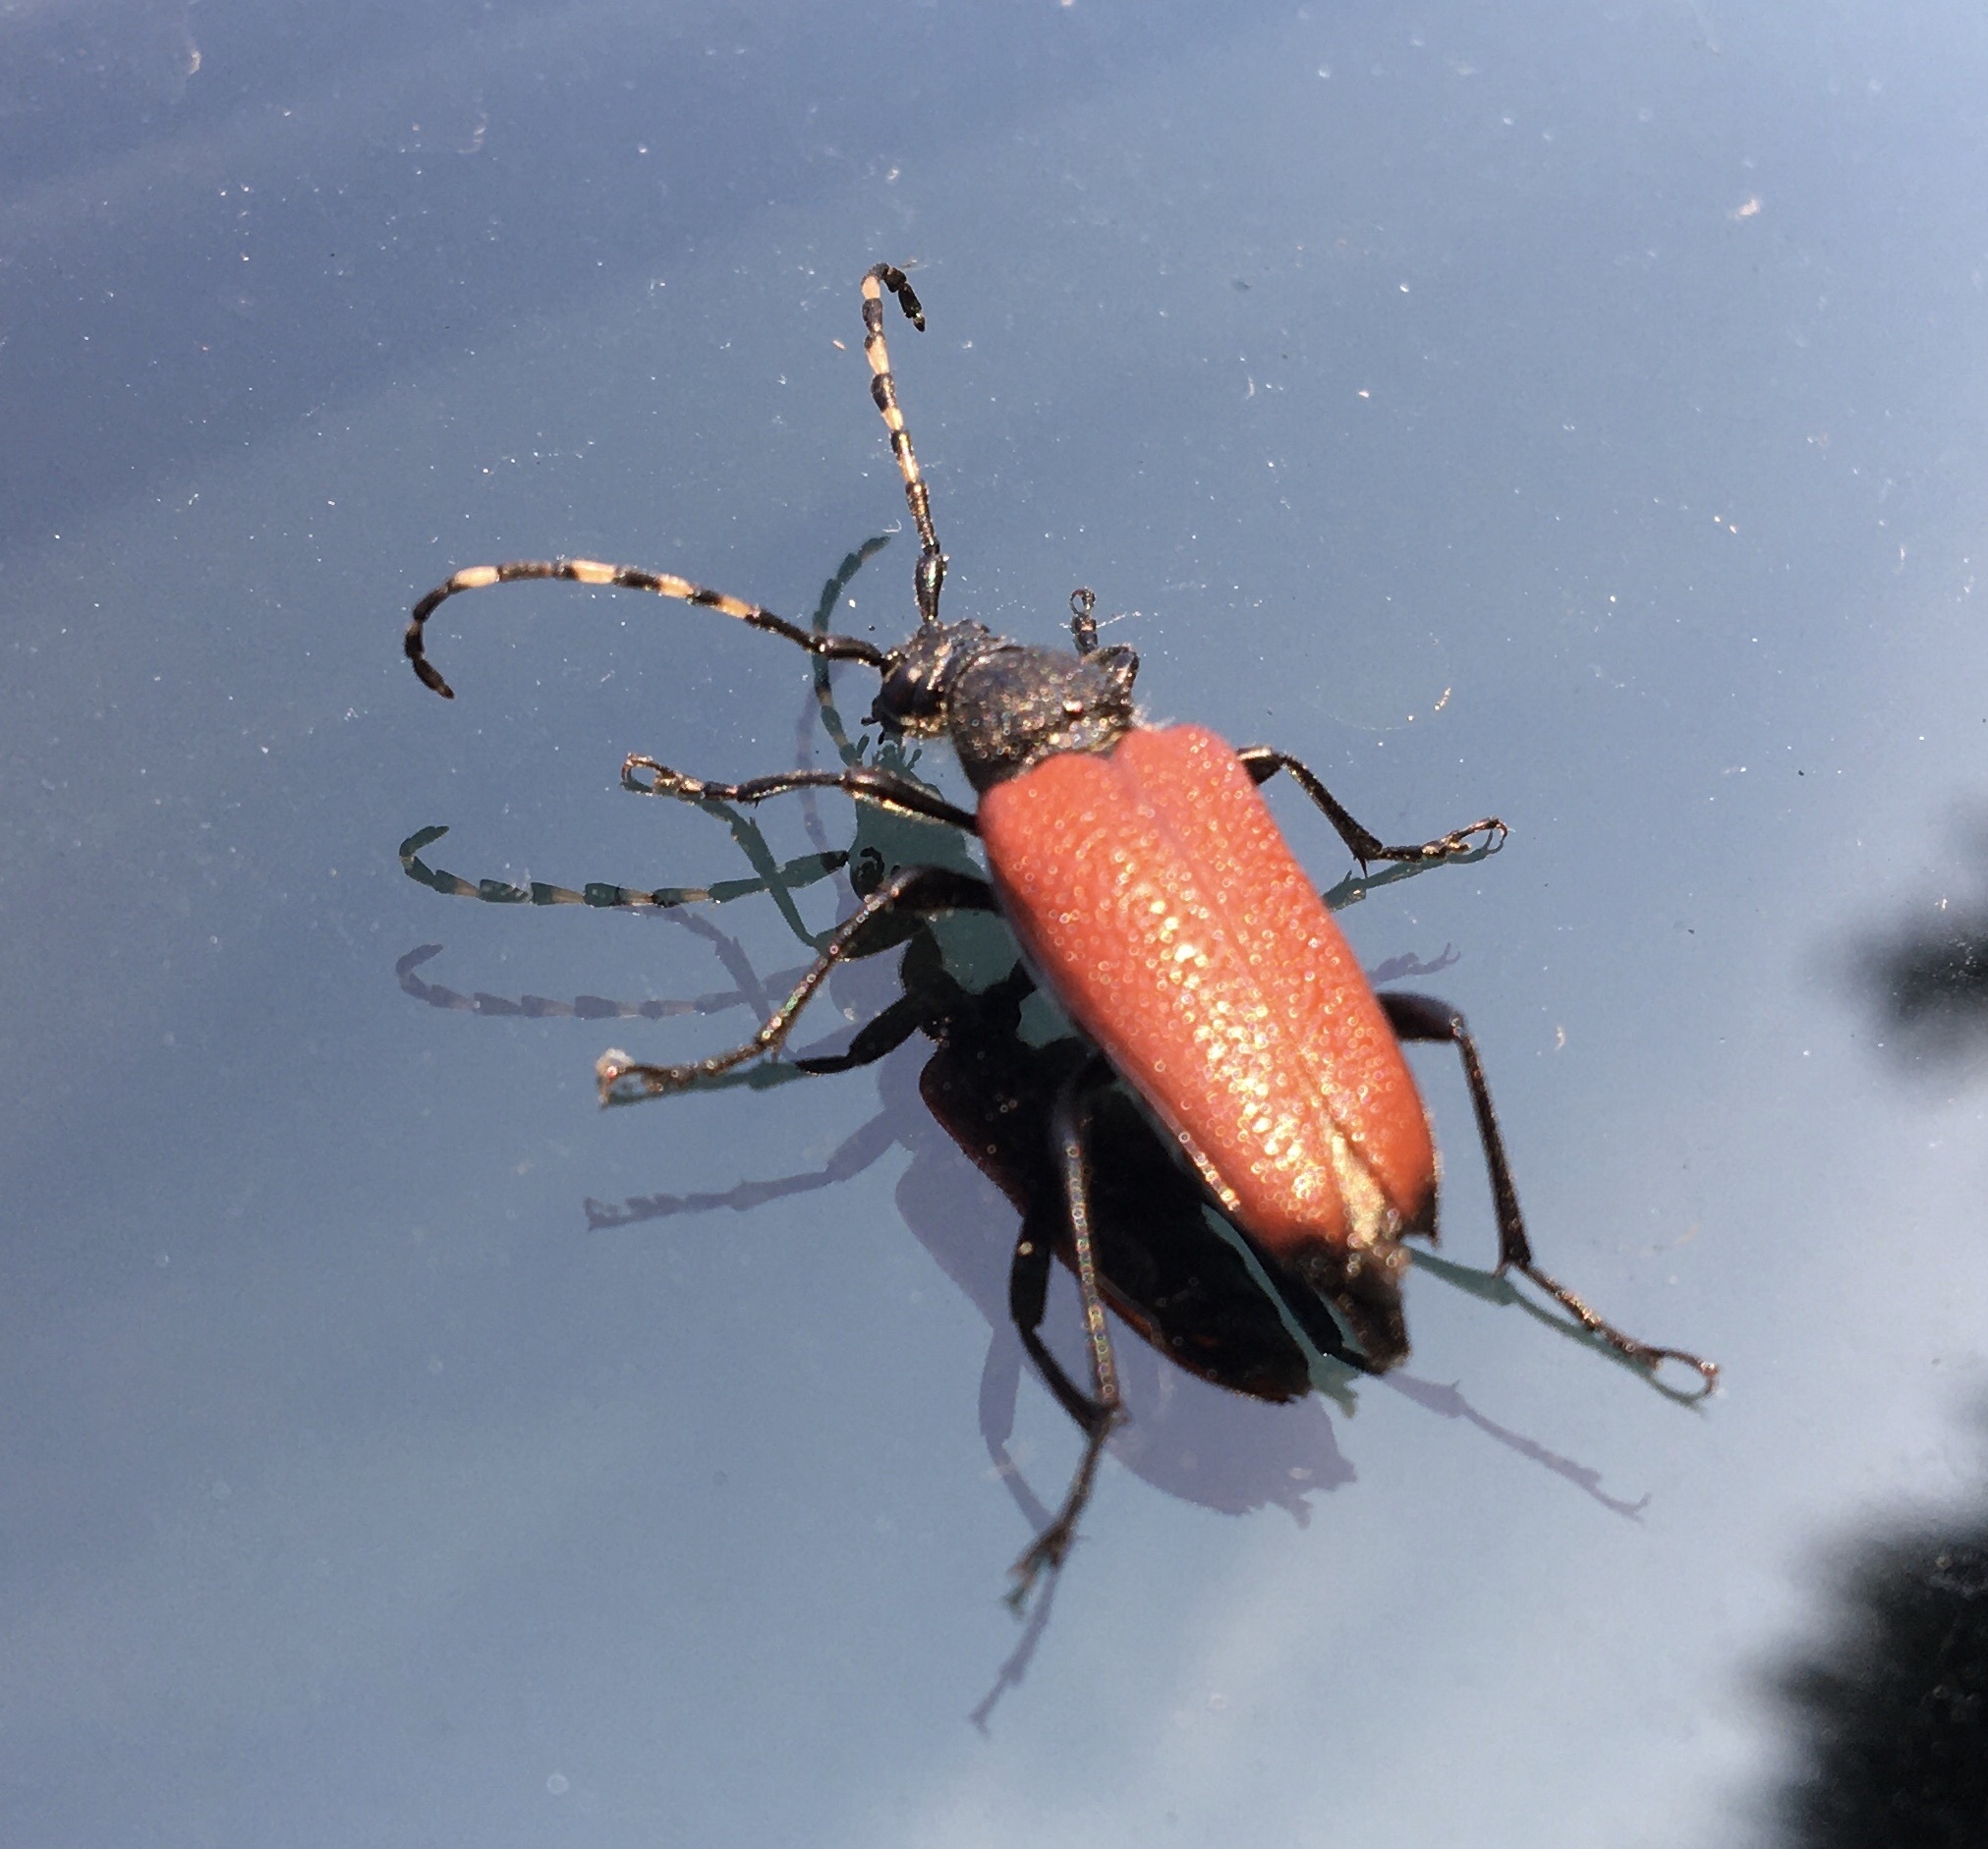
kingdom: Animalia
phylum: Arthropoda
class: Insecta
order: Coleoptera
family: Cerambycidae
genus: Stictoleptura
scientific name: Stictoleptura canadensis
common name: Red-shouldered pine borer
